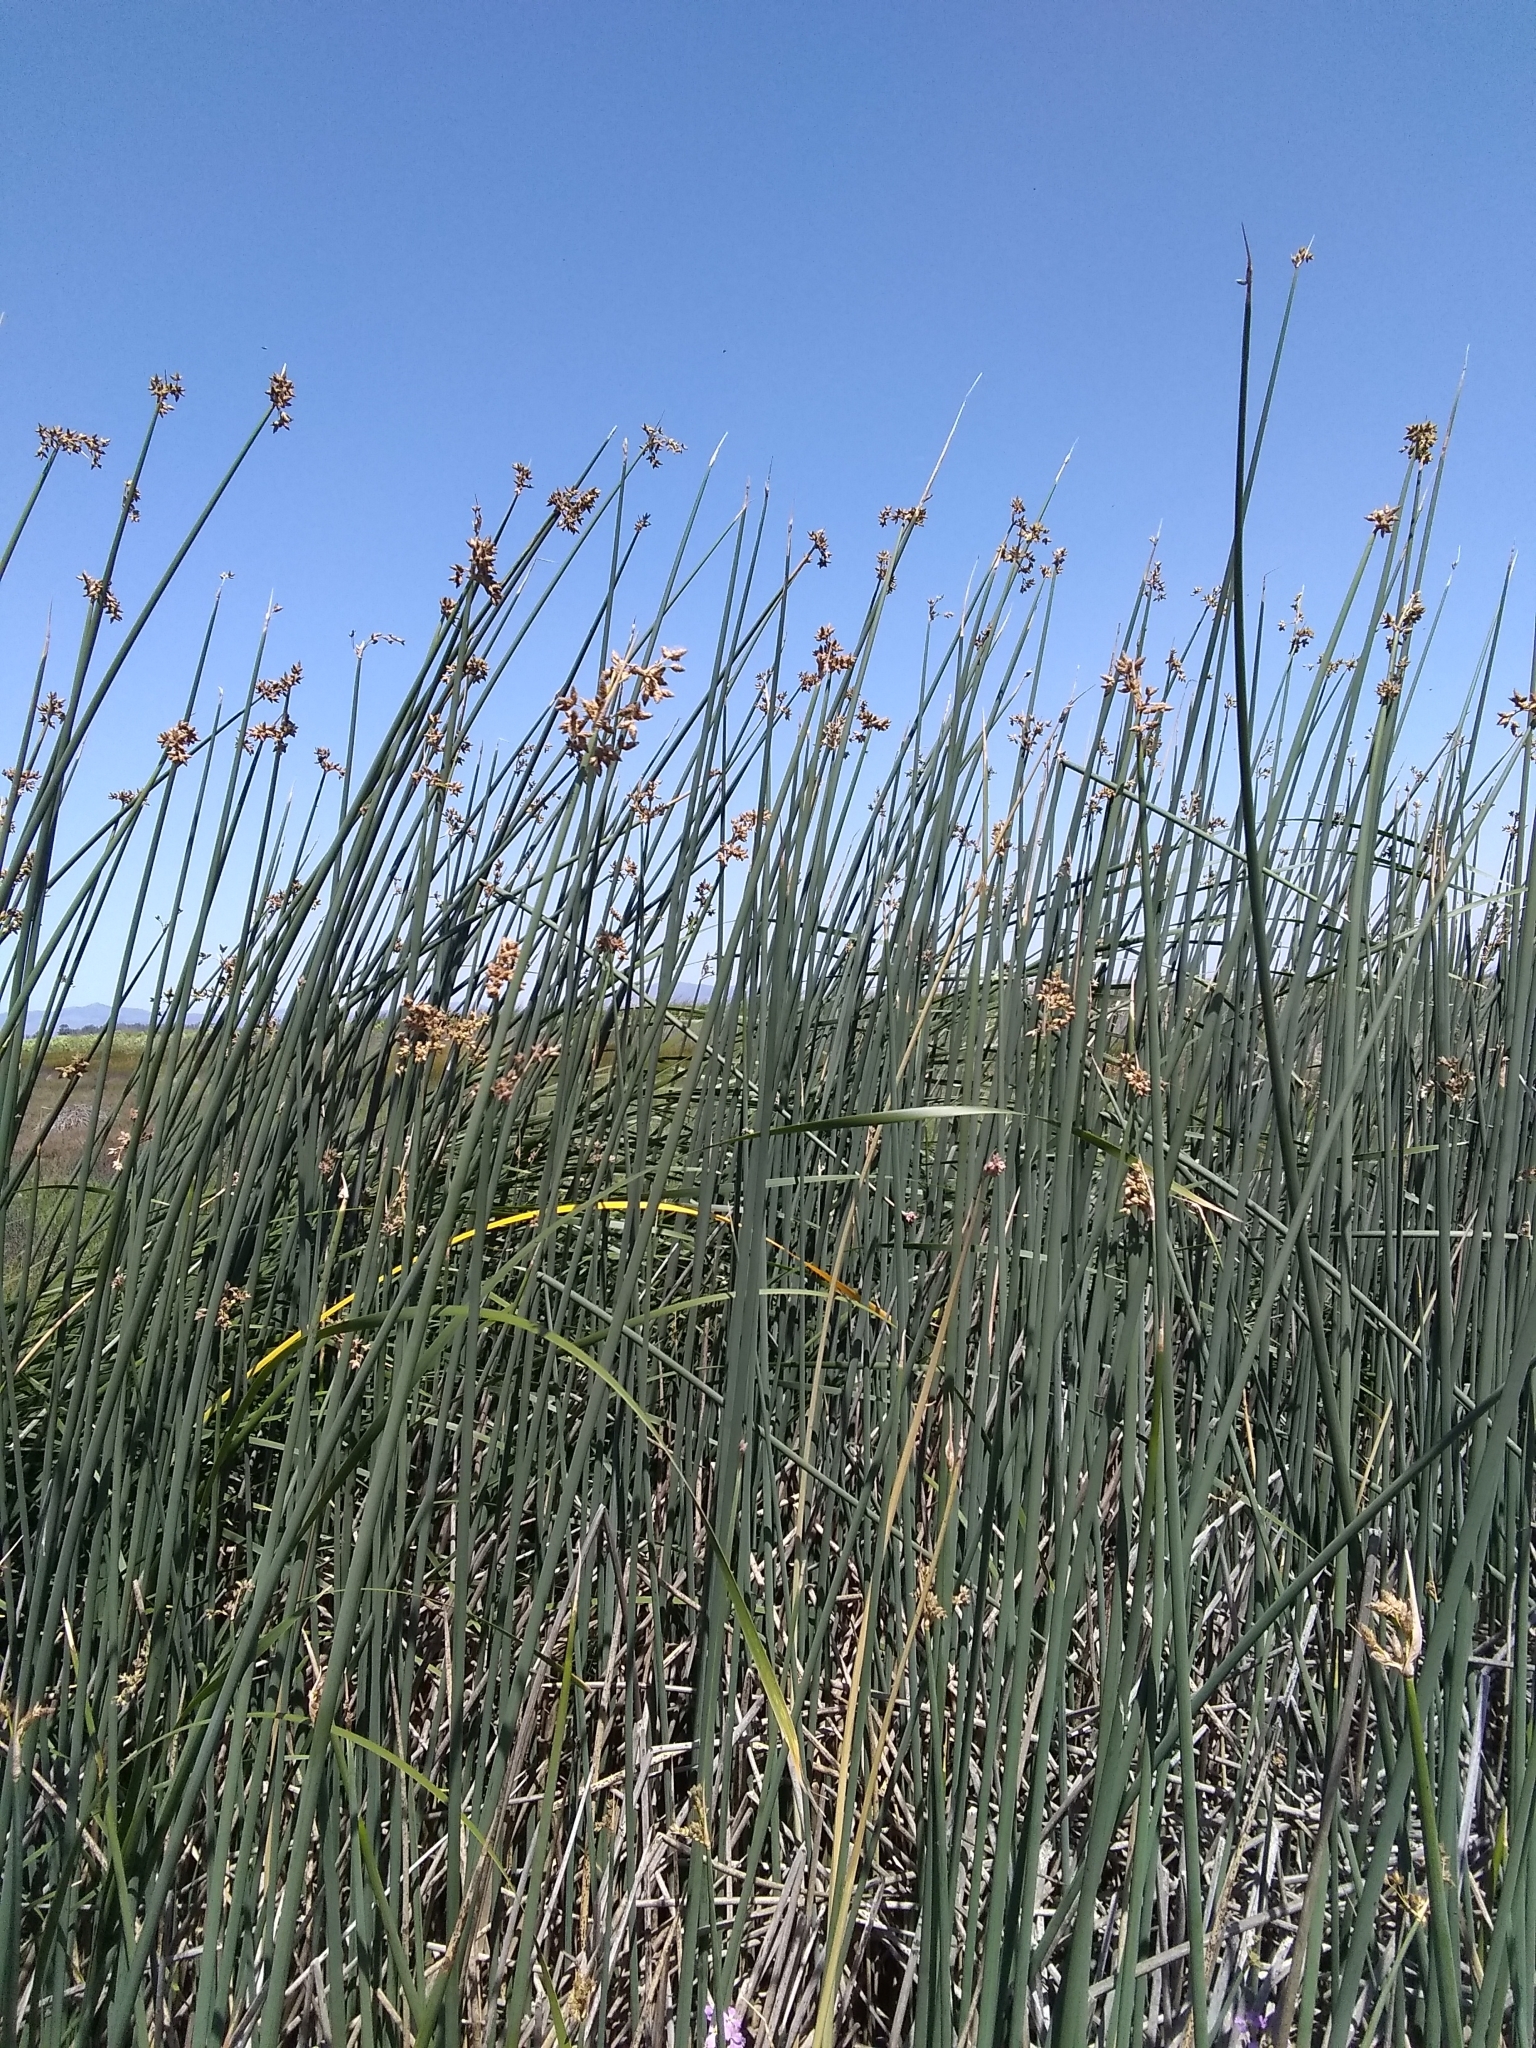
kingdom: Plantae
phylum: Tracheophyta
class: Liliopsida
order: Poales
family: Cyperaceae
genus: Schoenoplectus
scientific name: Schoenoplectus californicus
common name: California bulrush
